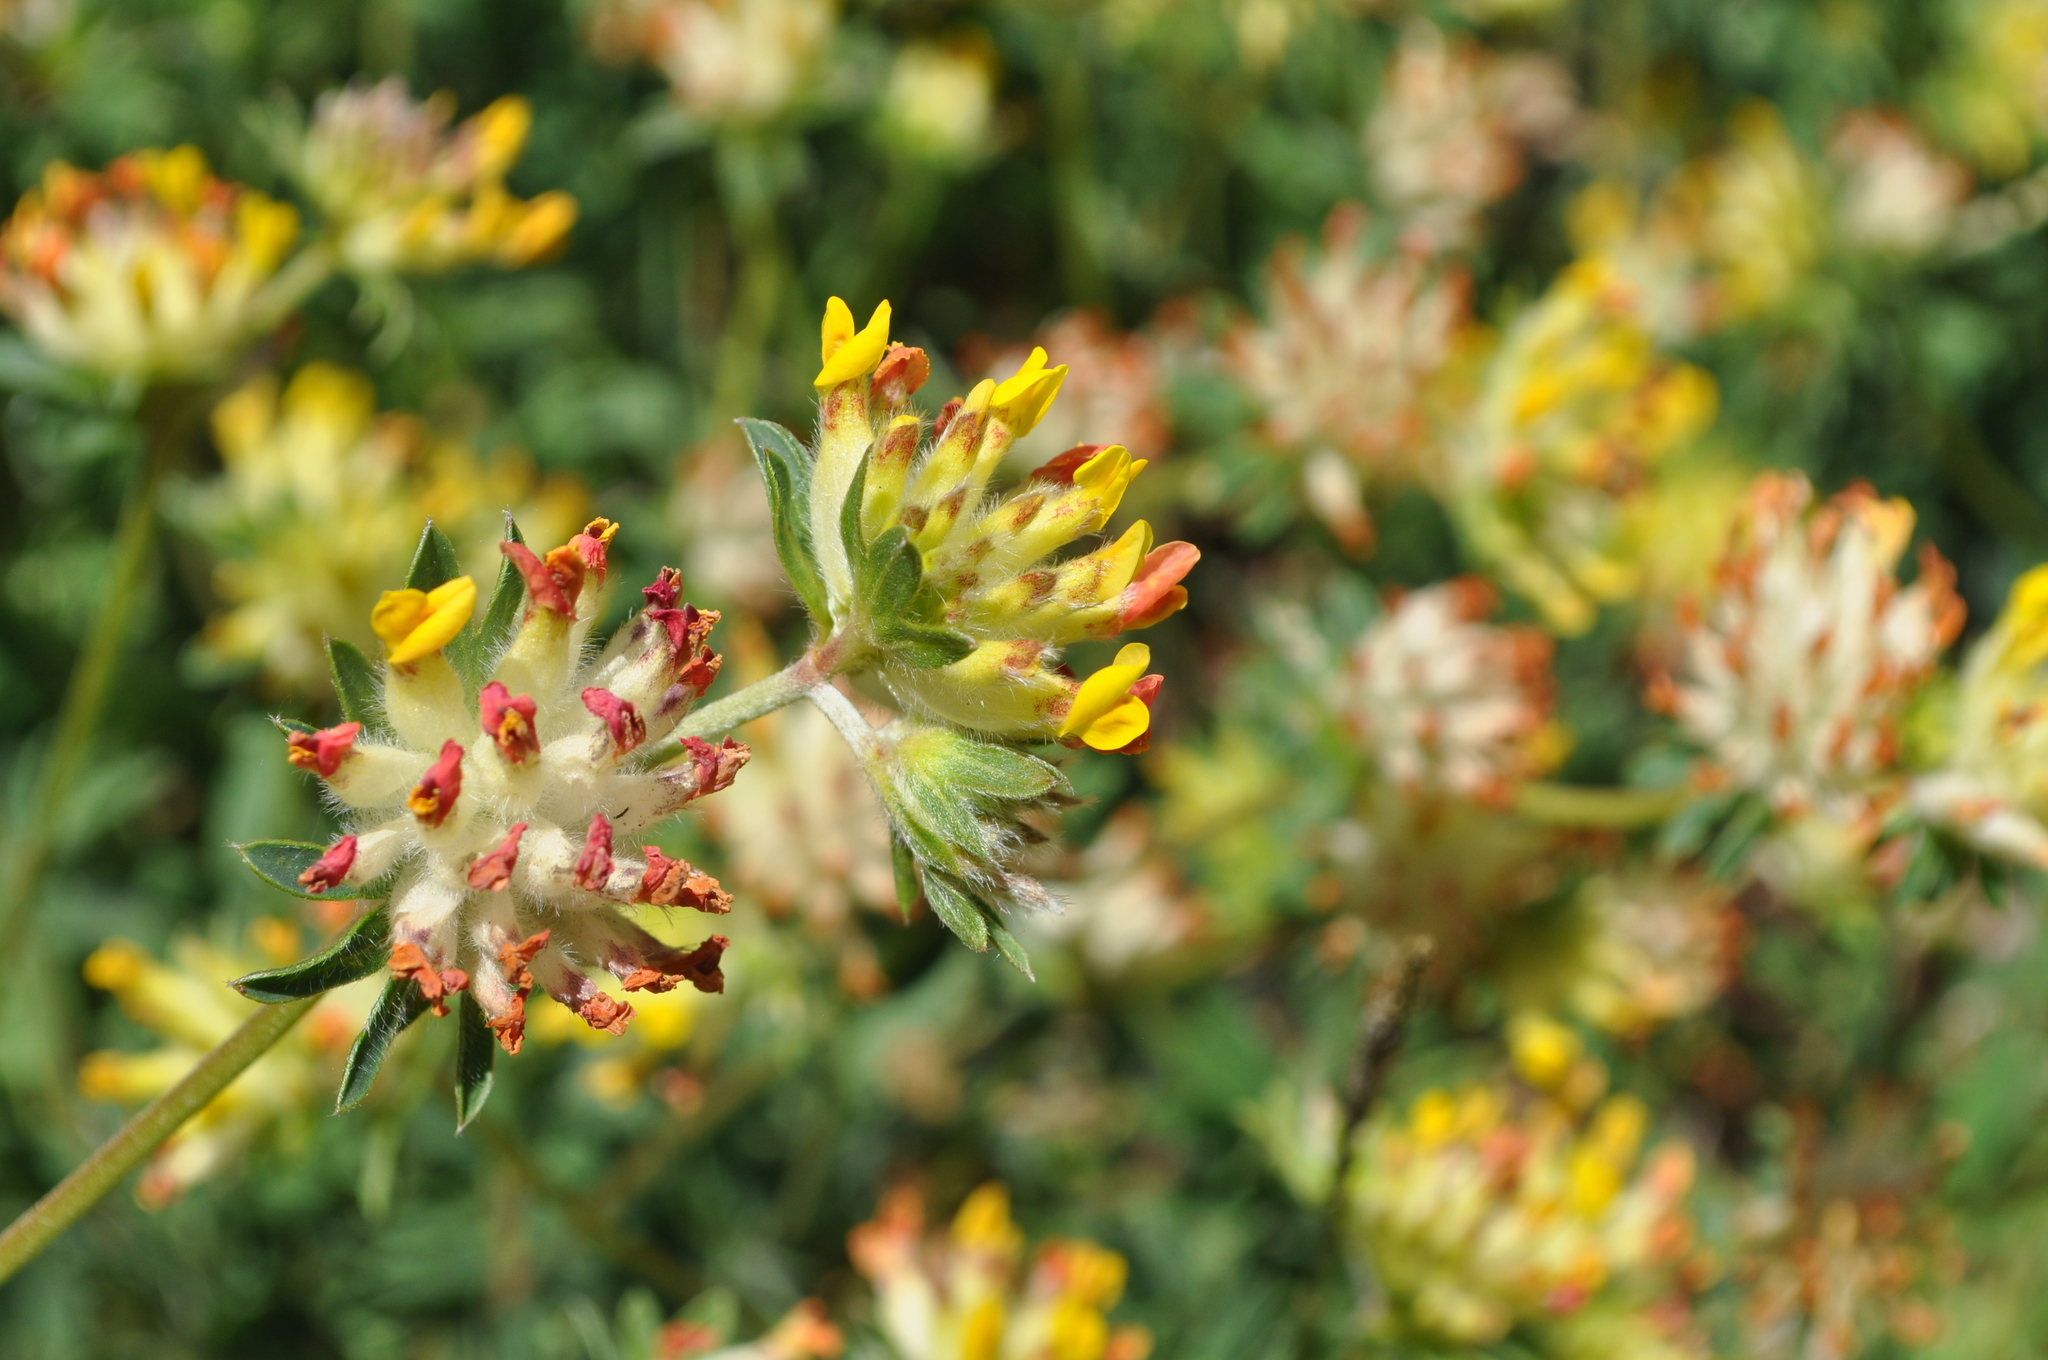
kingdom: Plantae
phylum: Tracheophyta
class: Magnoliopsida
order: Fabales
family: Fabaceae
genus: Anthyllis
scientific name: Anthyllis vulneraria
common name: Kidney vetch
